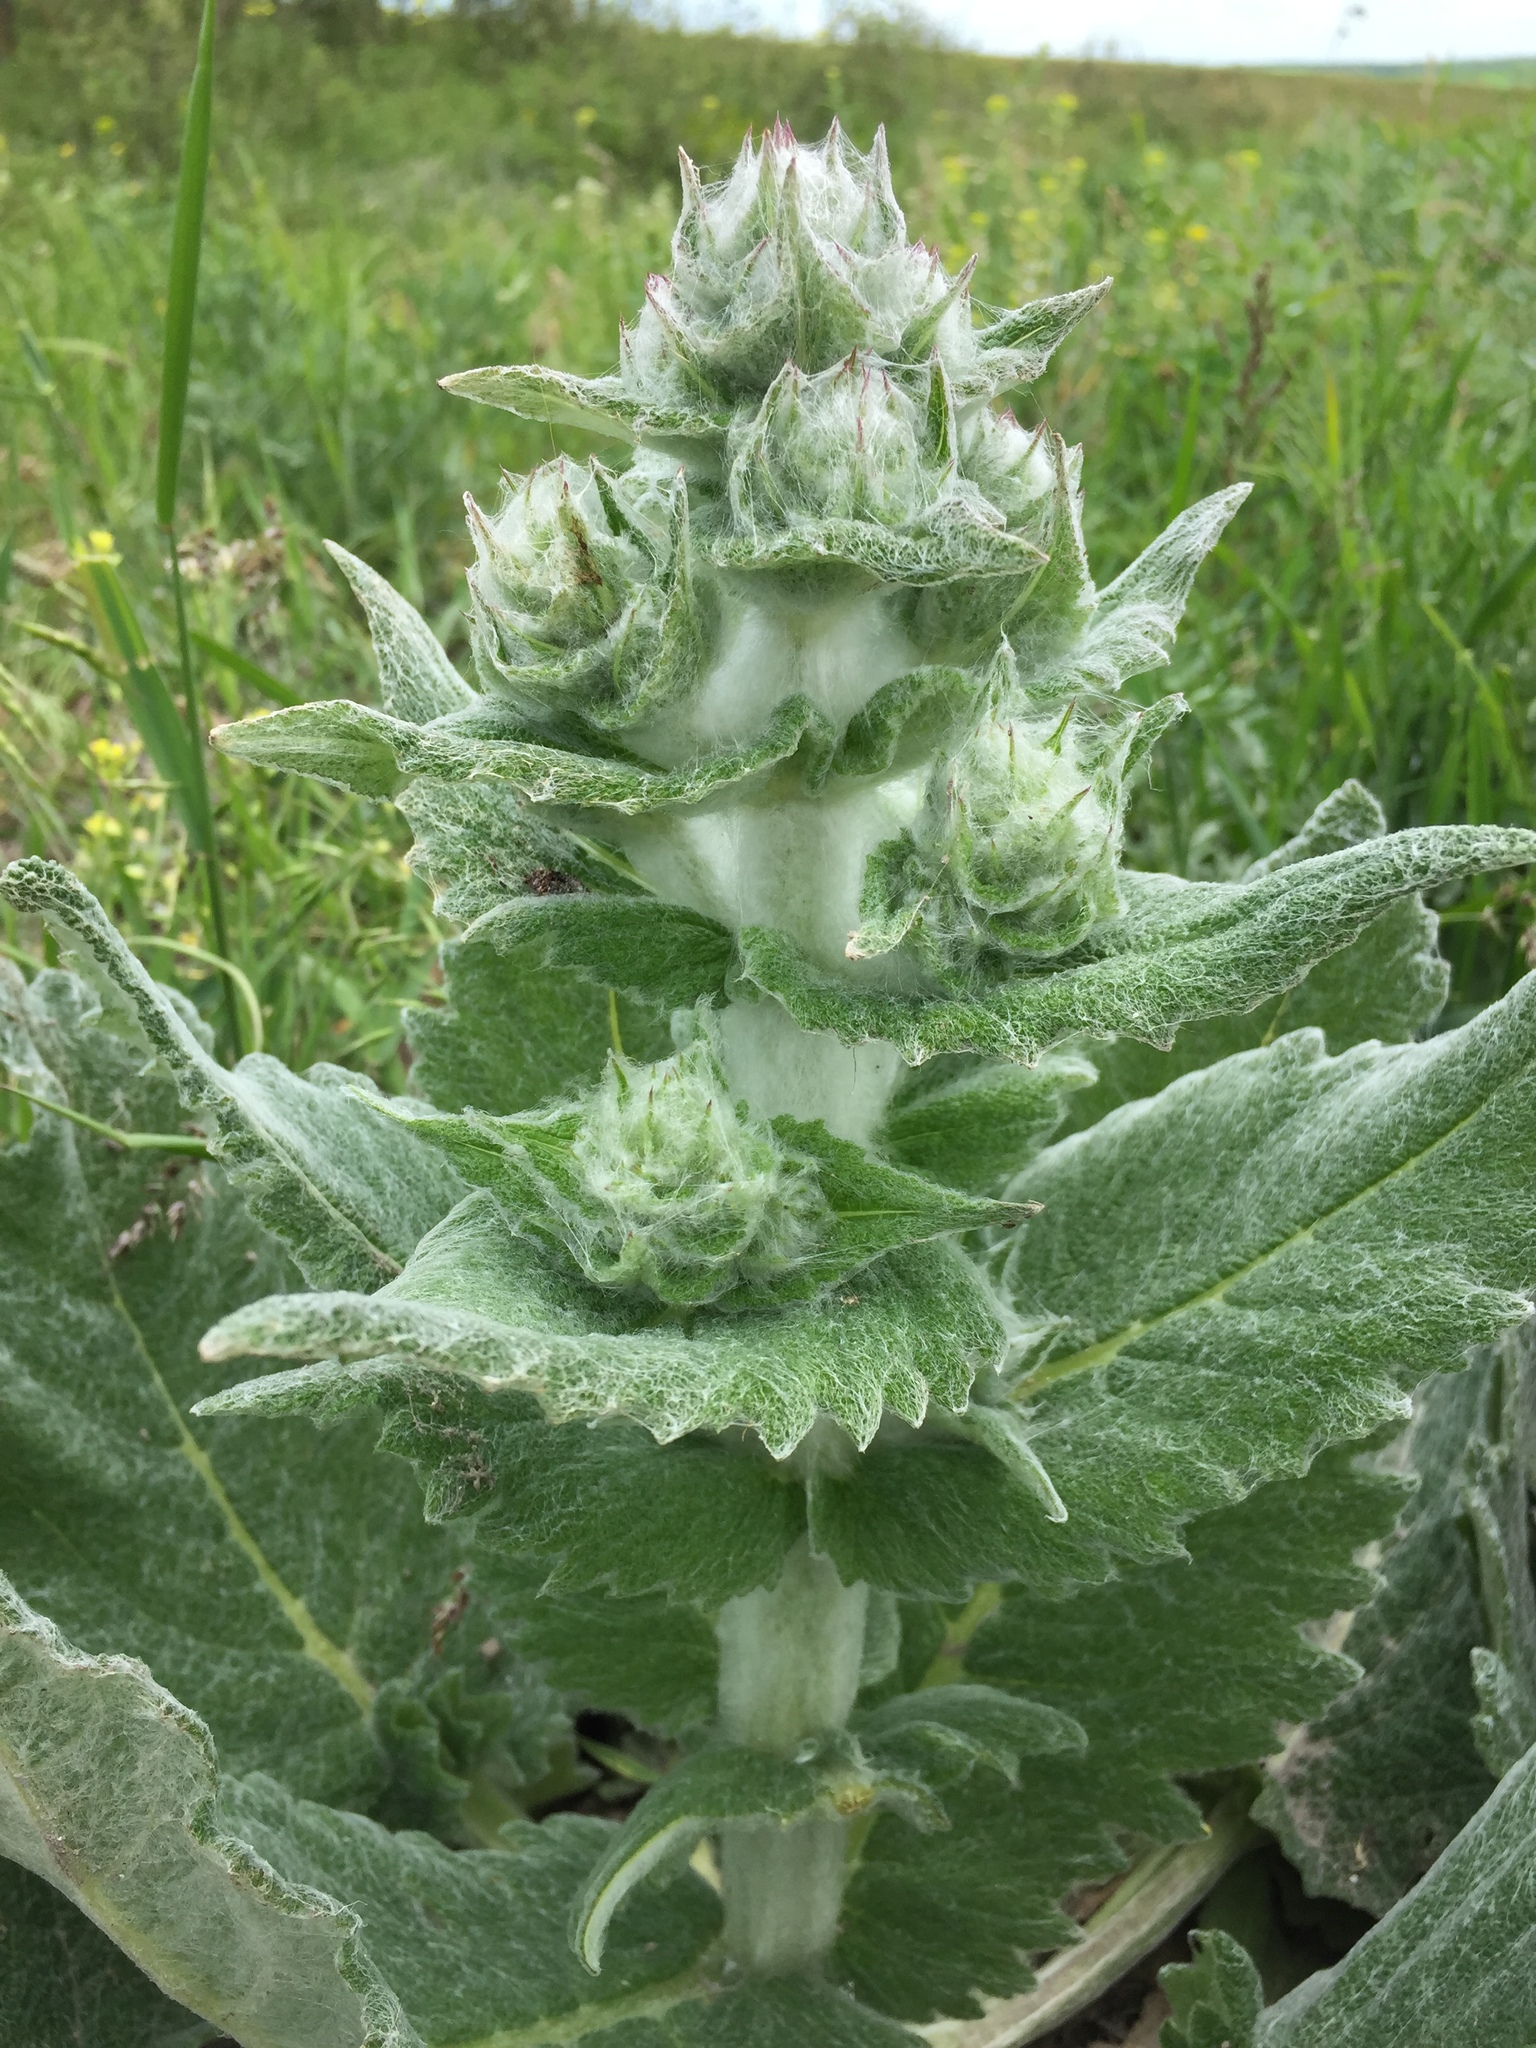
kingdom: Plantae
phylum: Tracheophyta
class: Magnoliopsida
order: Lamiales
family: Lamiaceae
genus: Salvia
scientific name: Salvia aethiopis
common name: Mediterranean sage
